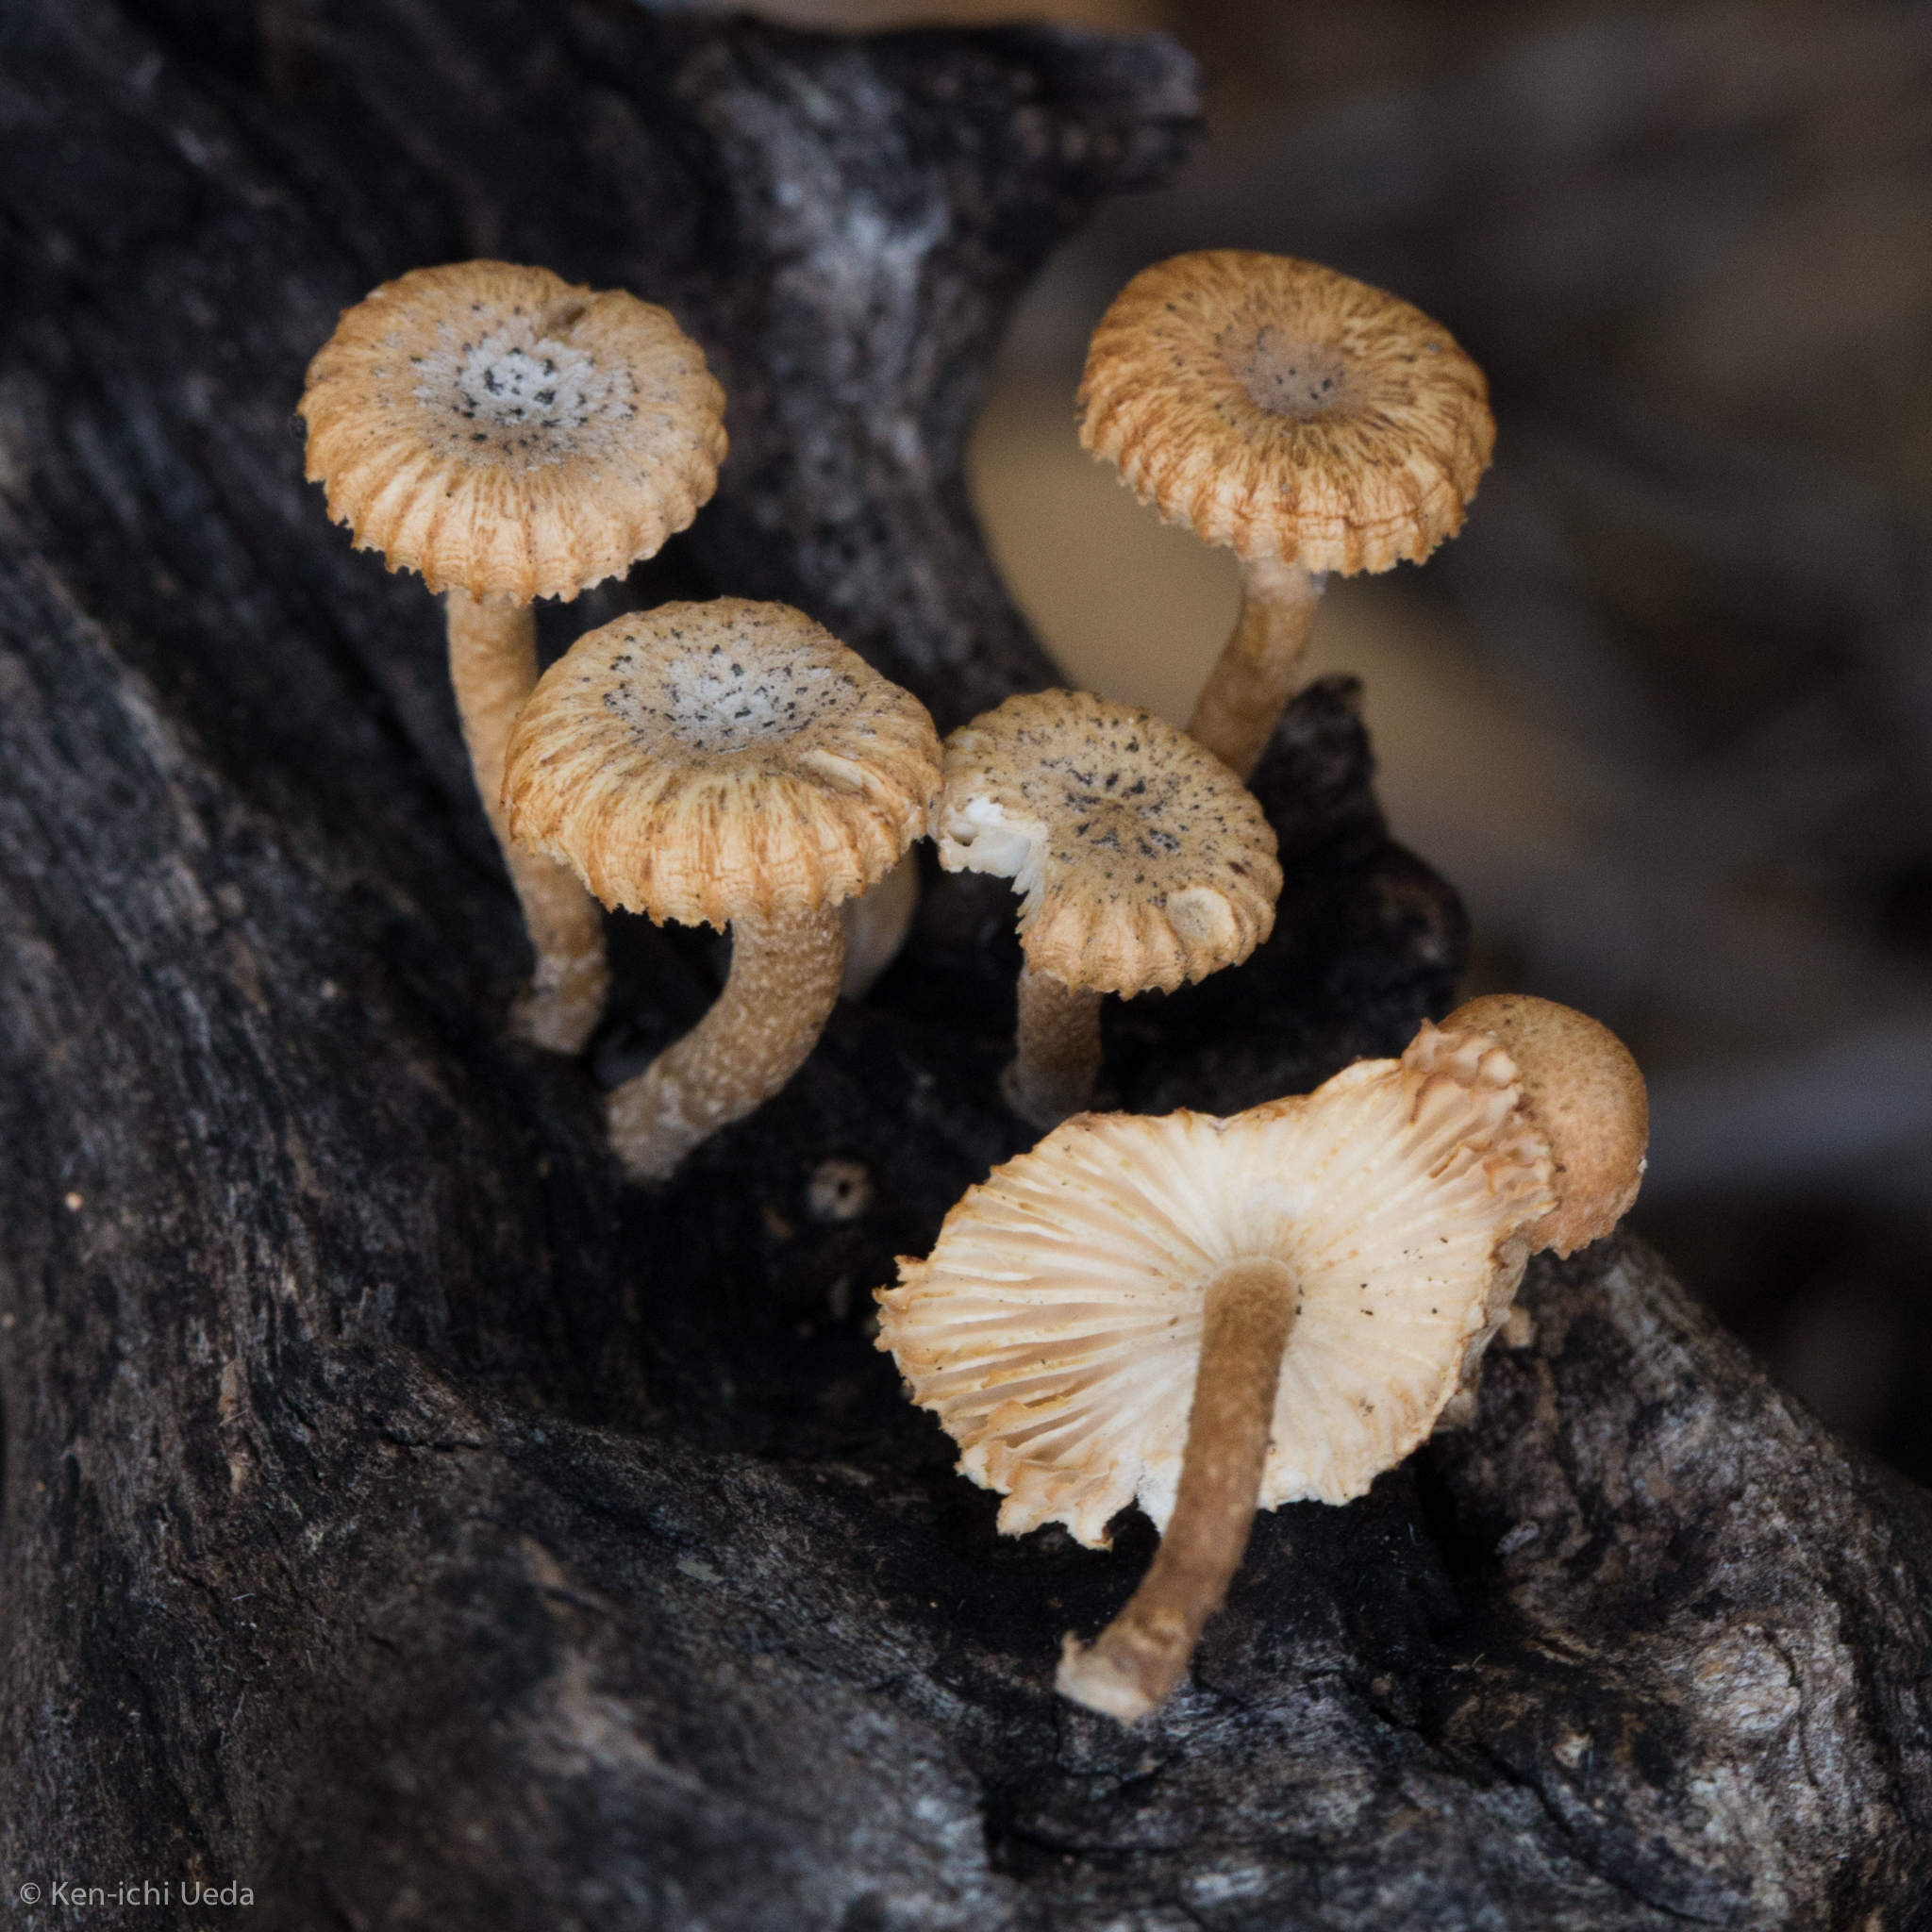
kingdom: Fungi
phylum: Basidiomycota
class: Agaricomycetes
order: Gloeophyllales
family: Gloeophyllaceae
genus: Heliocybe
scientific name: Heliocybe sulcata
